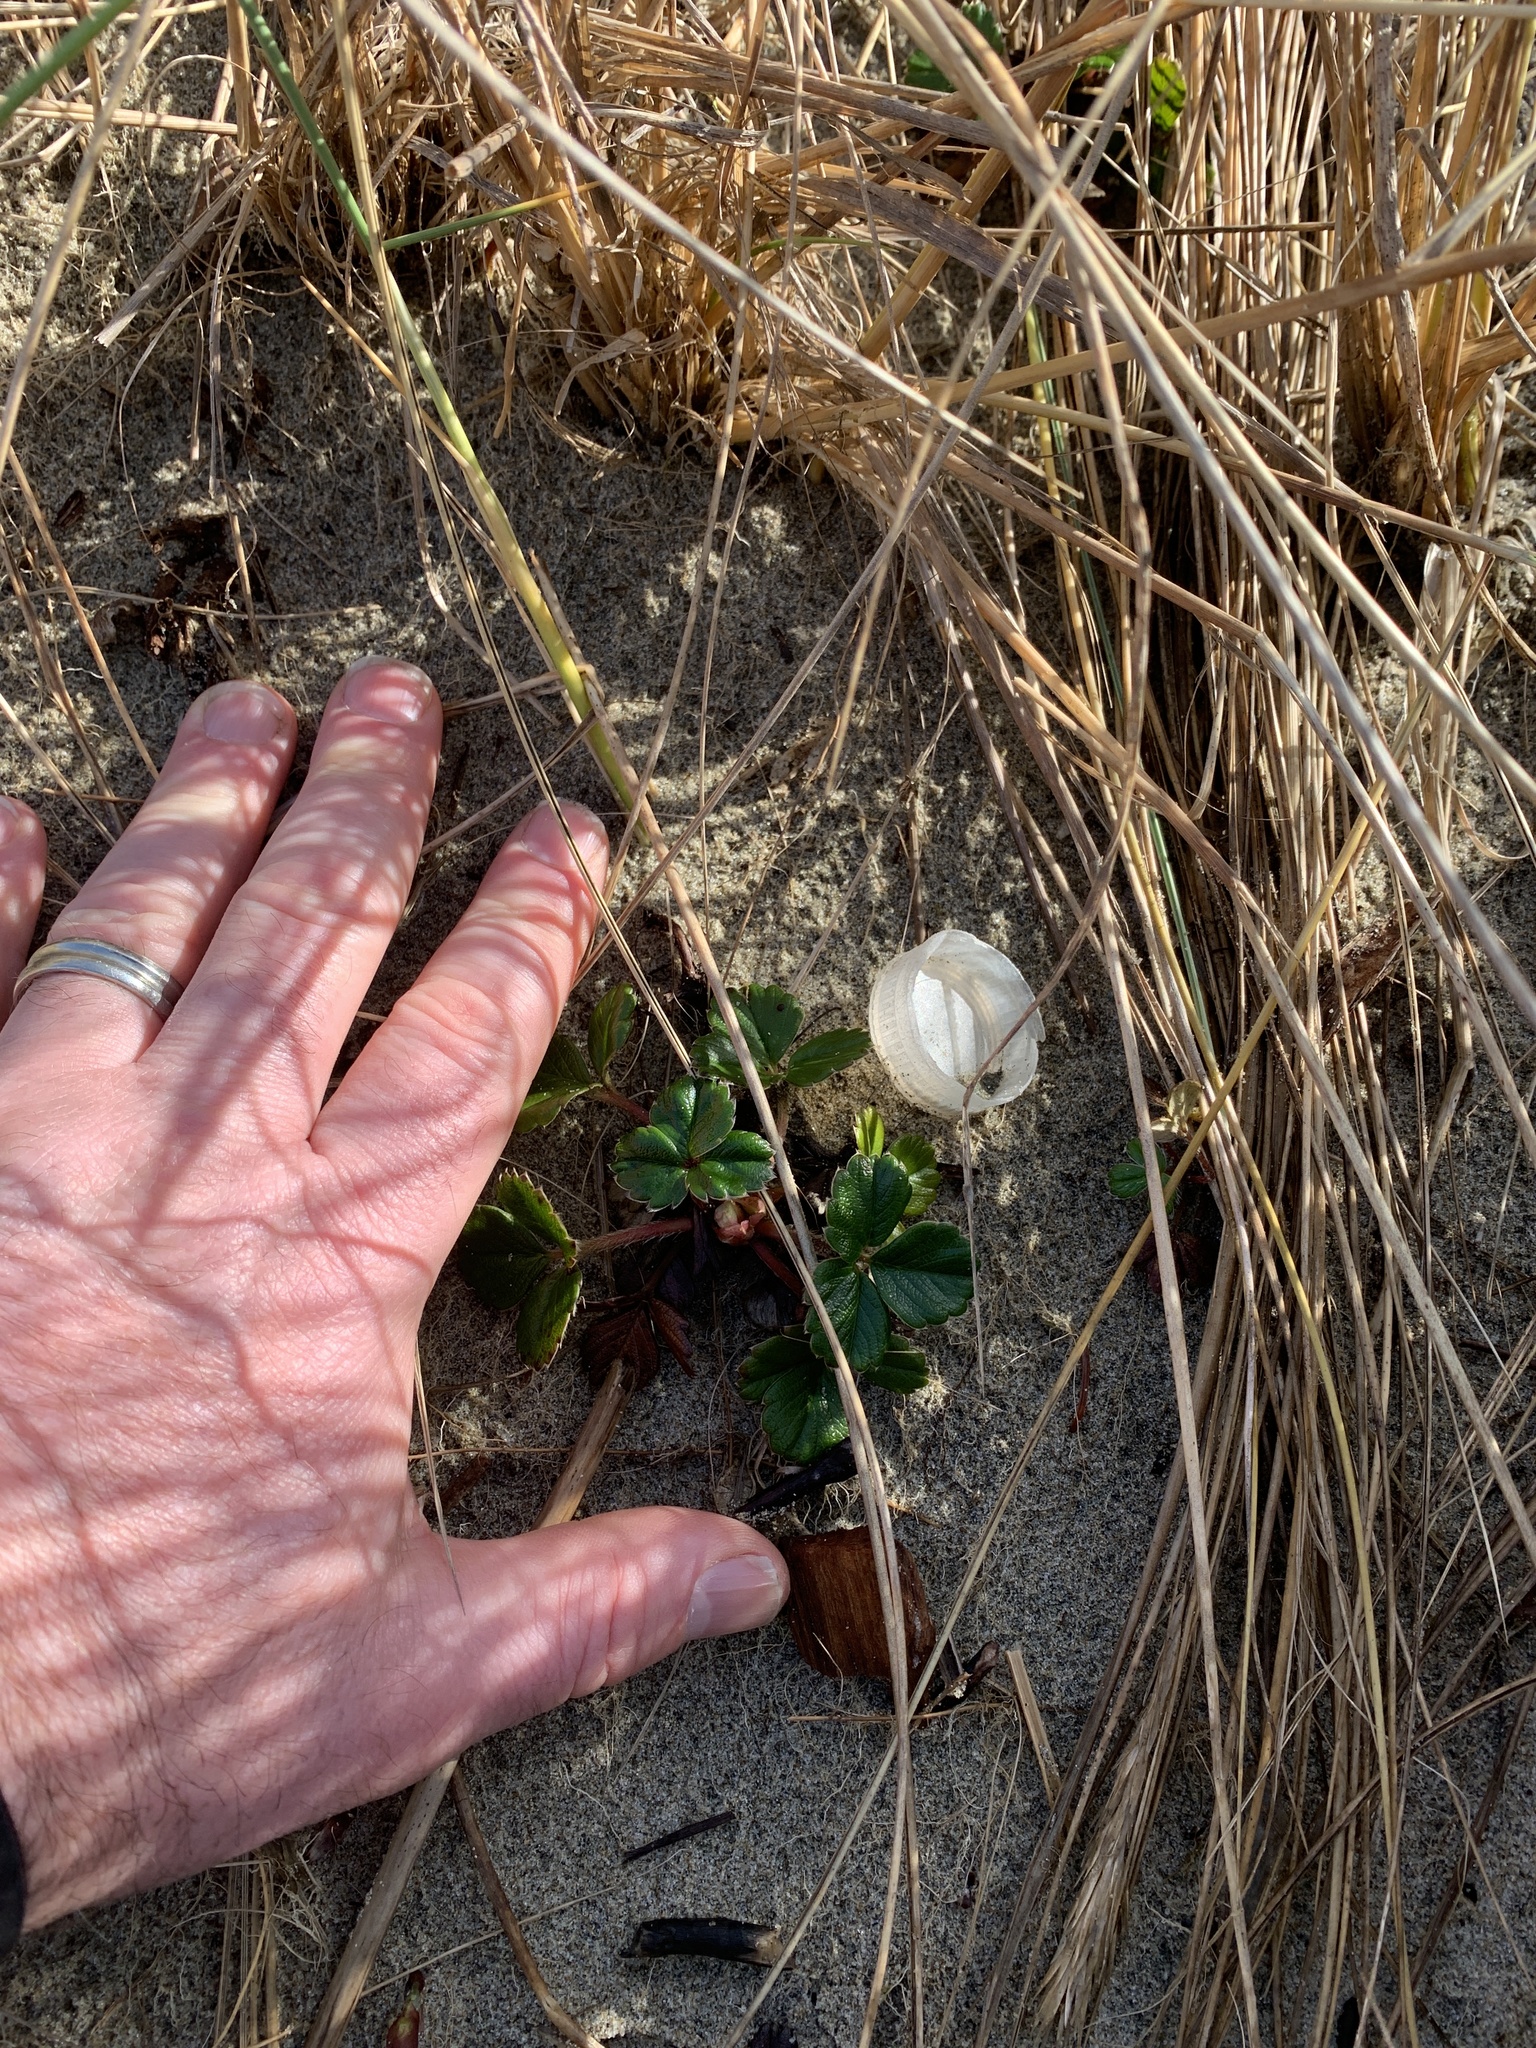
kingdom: Plantae
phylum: Tracheophyta
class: Magnoliopsida
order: Rosales
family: Rosaceae
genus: Fragaria
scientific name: Fragaria chiloensis
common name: Beach strawberry
